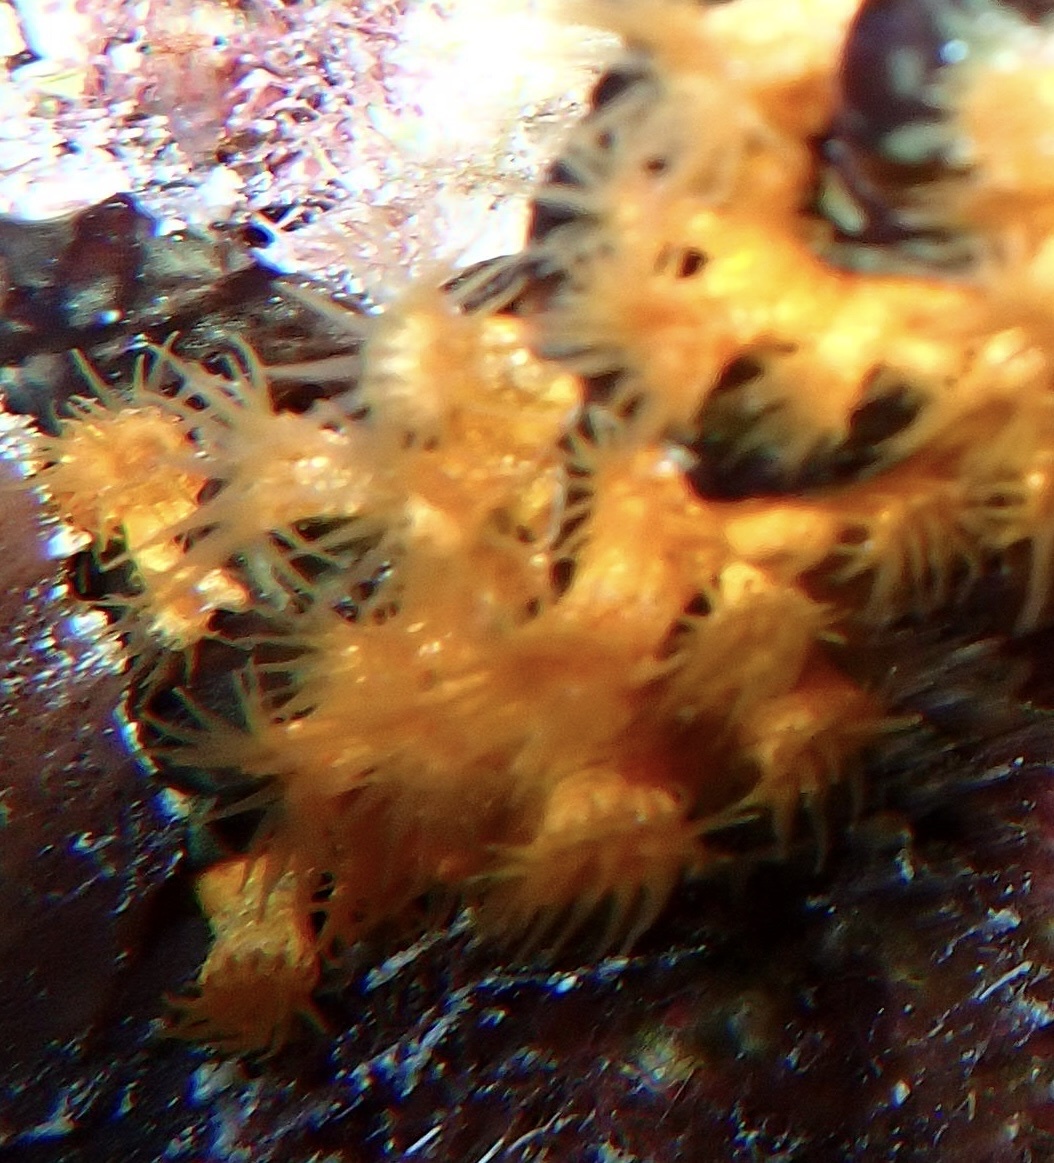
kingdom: Animalia
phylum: Cnidaria
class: Anthozoa
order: Zoantharia
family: Parazoanthidae
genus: Parazoanthus
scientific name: Parazoanthus swiftii
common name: Golden zoanthid
